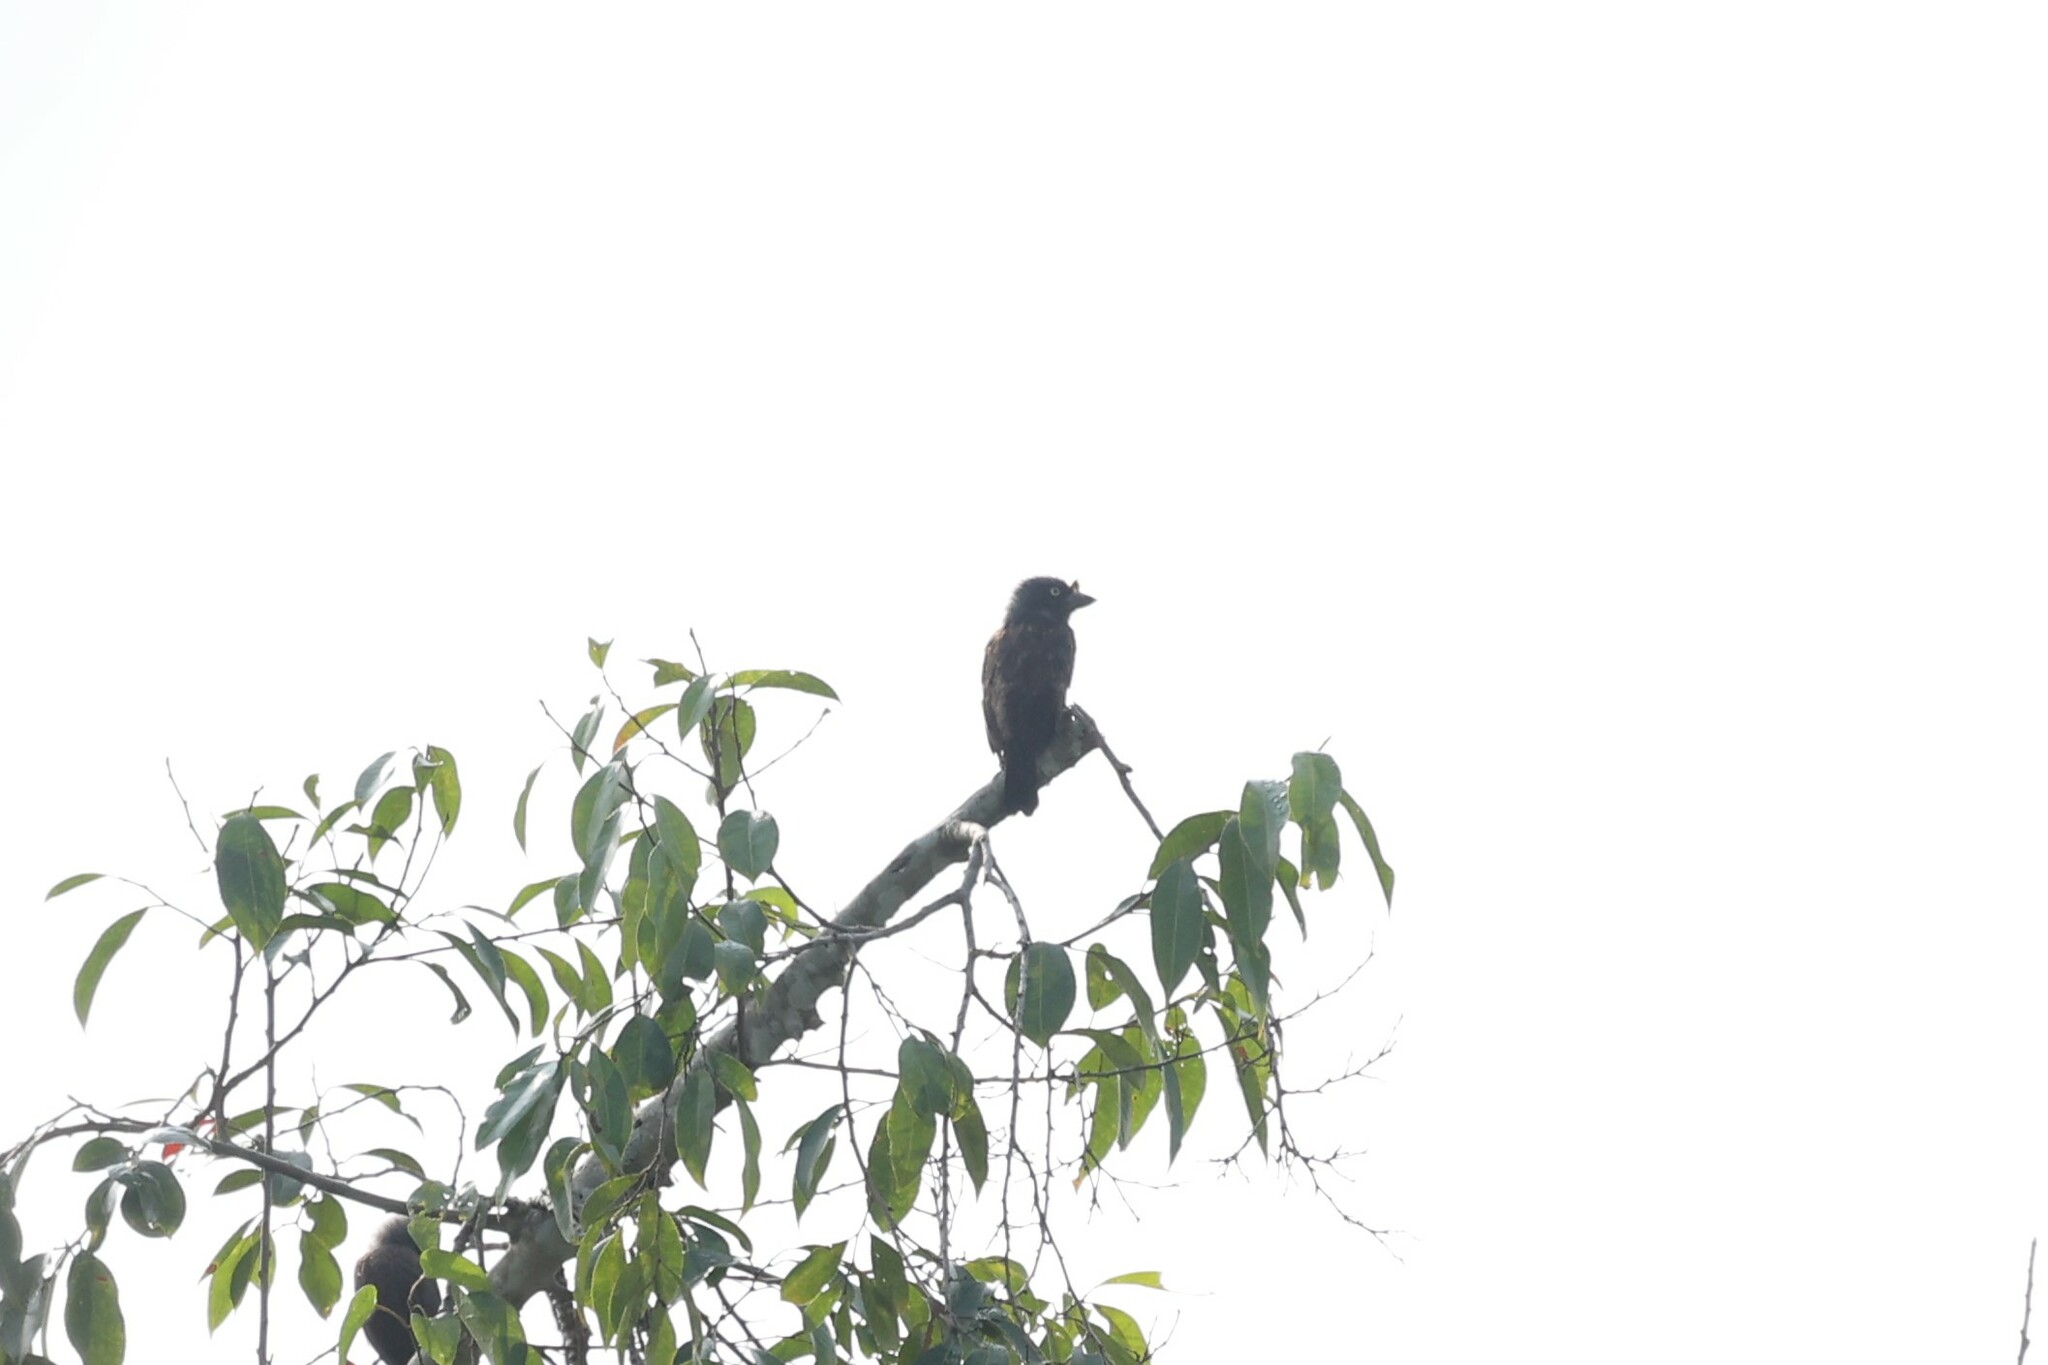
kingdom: Animalia
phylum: Chordata
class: Aves
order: Piciformes
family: Lybiidae
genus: Gymnobucco
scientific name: Gymnobucco bonapartei
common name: Grey-throated barbet
